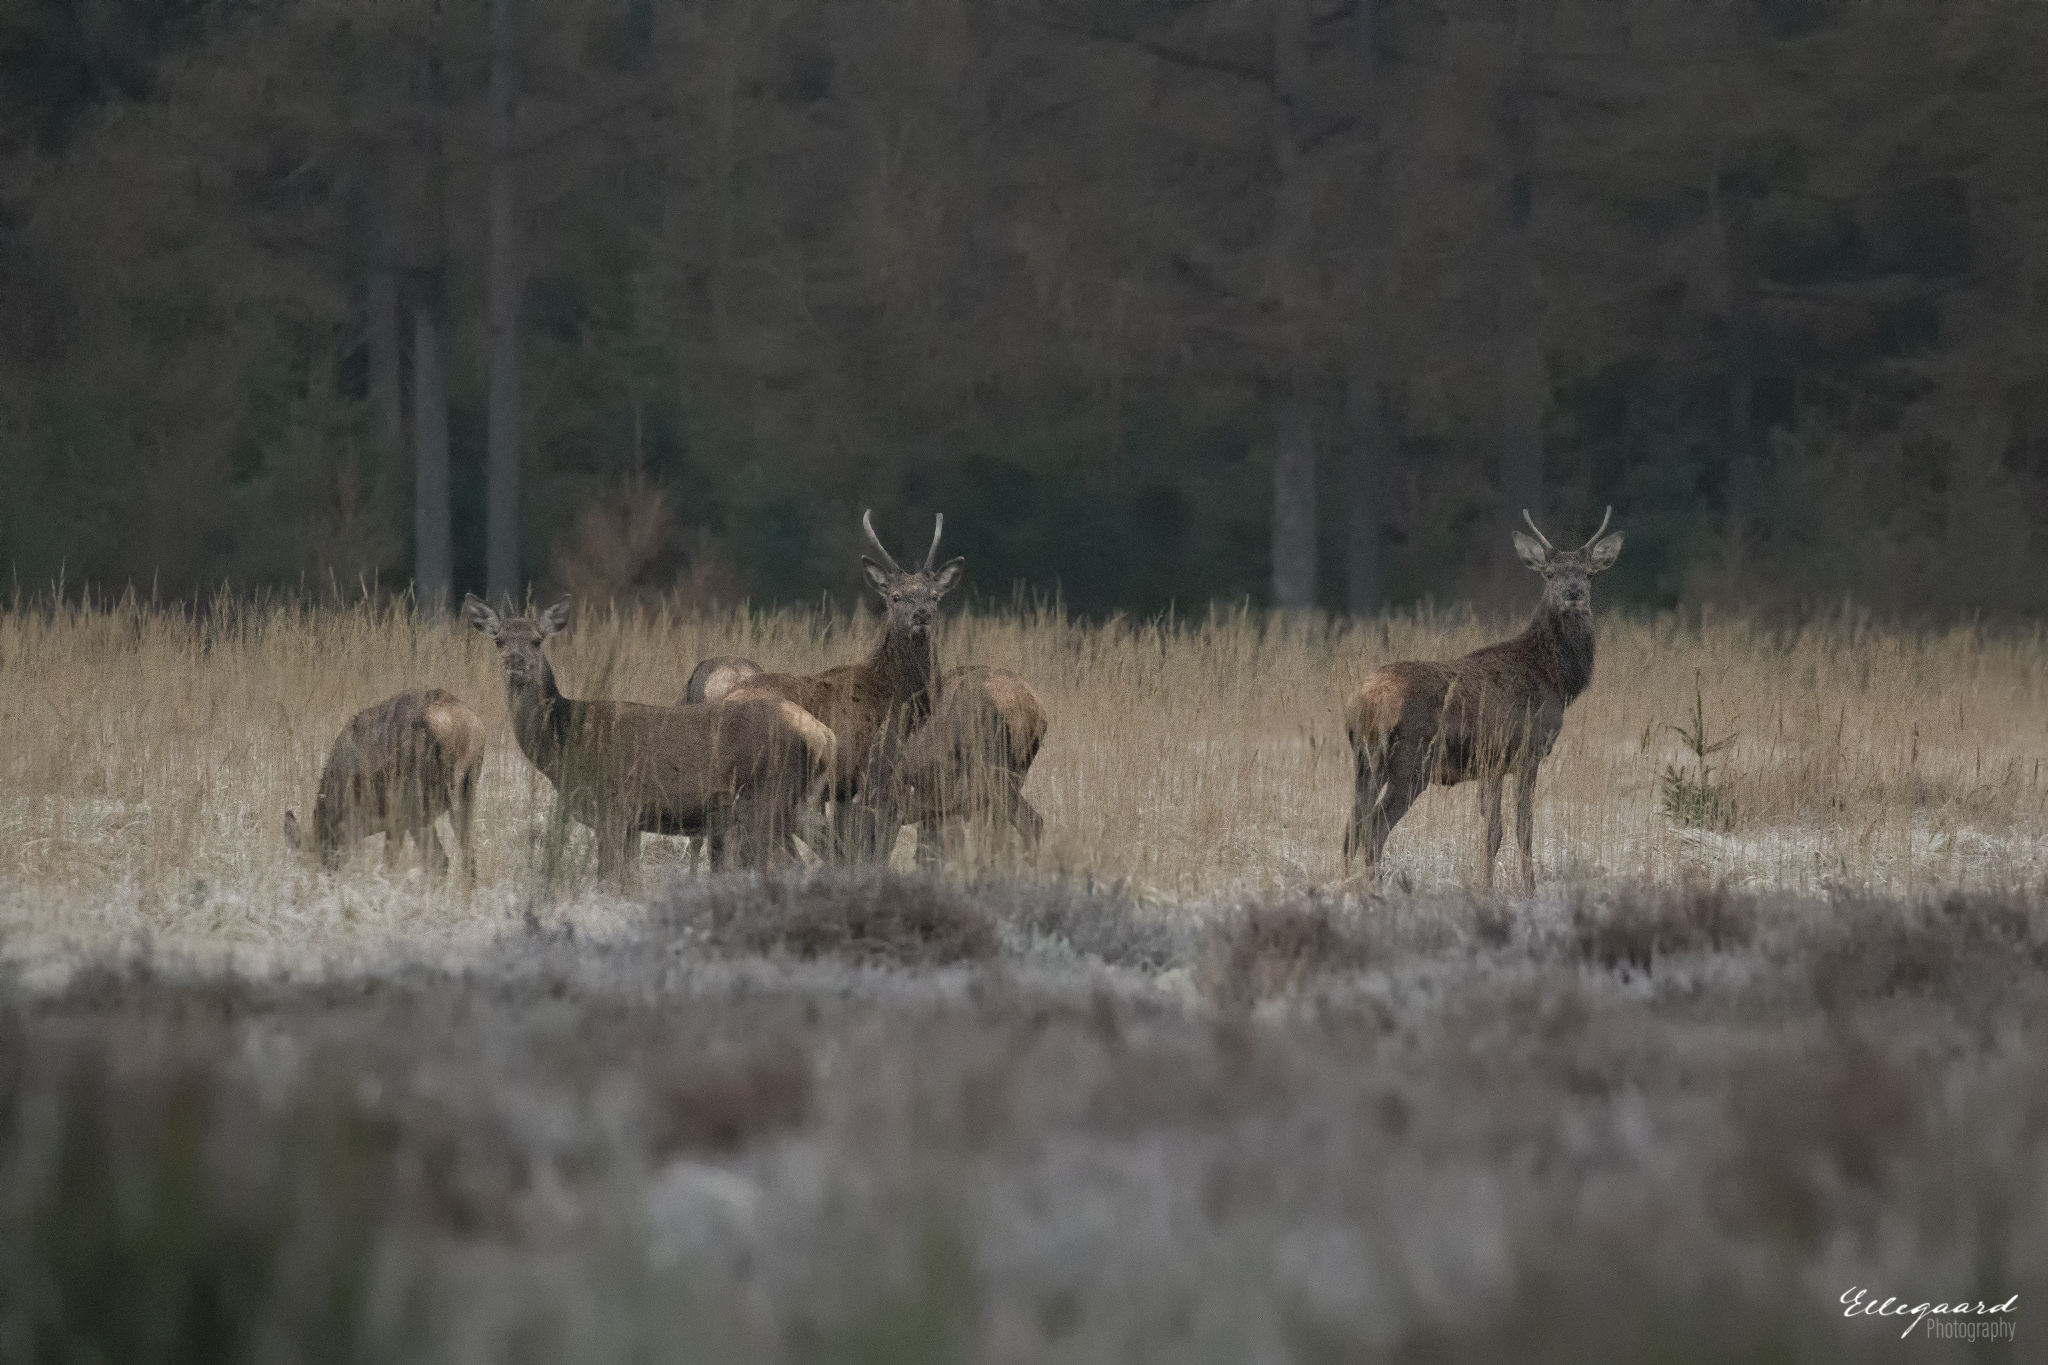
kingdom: Animalia
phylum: Chordata
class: Mammalia
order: Artiodactyla
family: Cervidae
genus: Cervus
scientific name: Cervus elaphus
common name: Red deer
